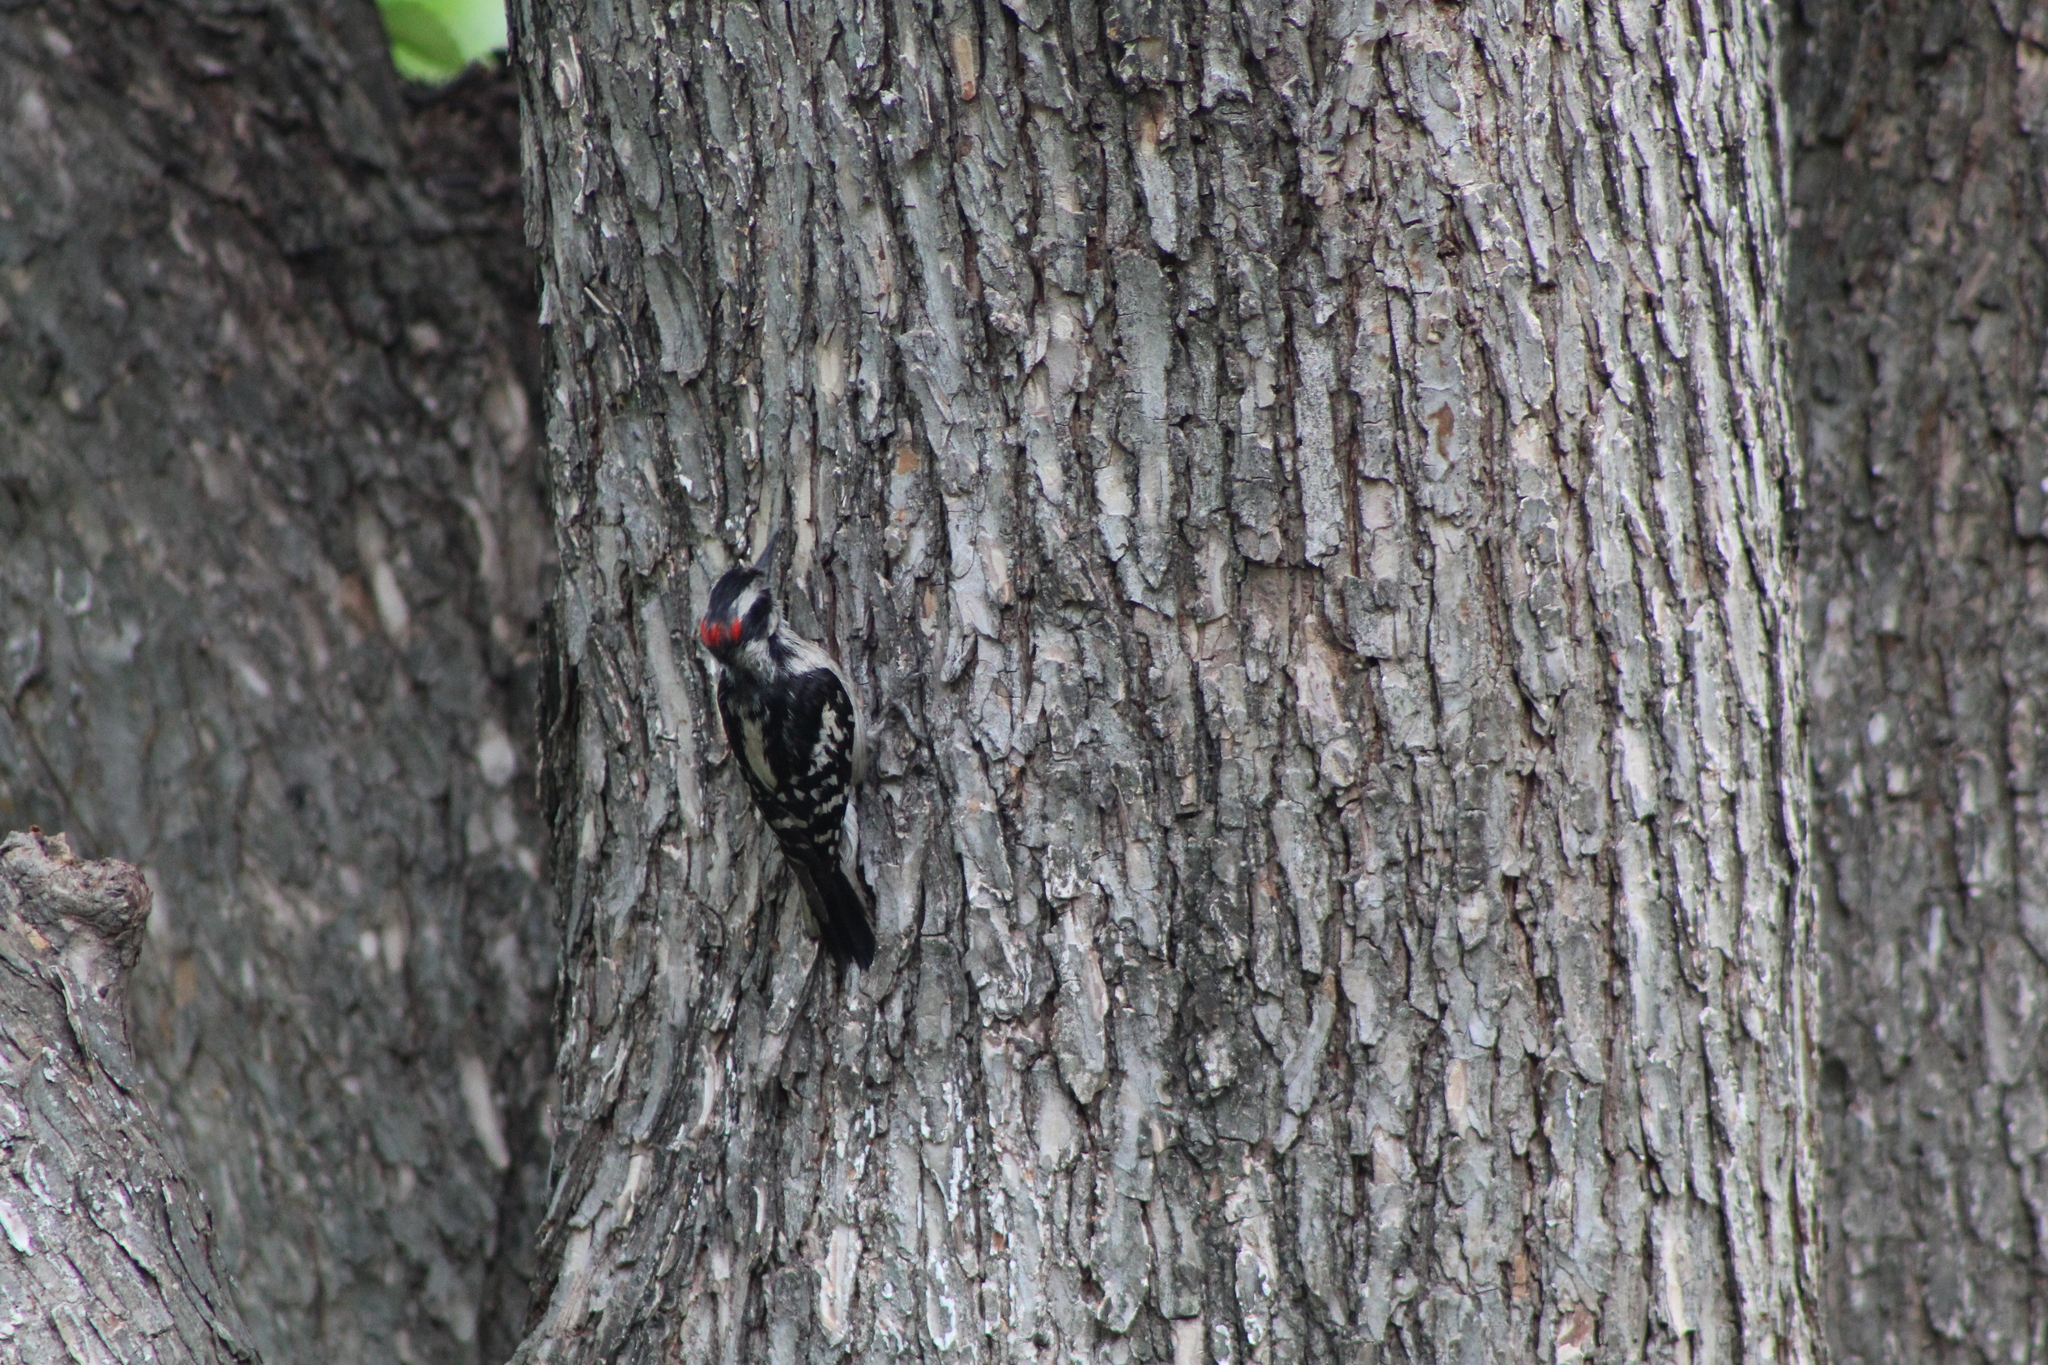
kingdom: Animalia
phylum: Chordata
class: Aves
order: Piciformes
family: Picidae
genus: Leuconotopicus
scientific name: Leuconotopicus villosus
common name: Hairy woodpecker
